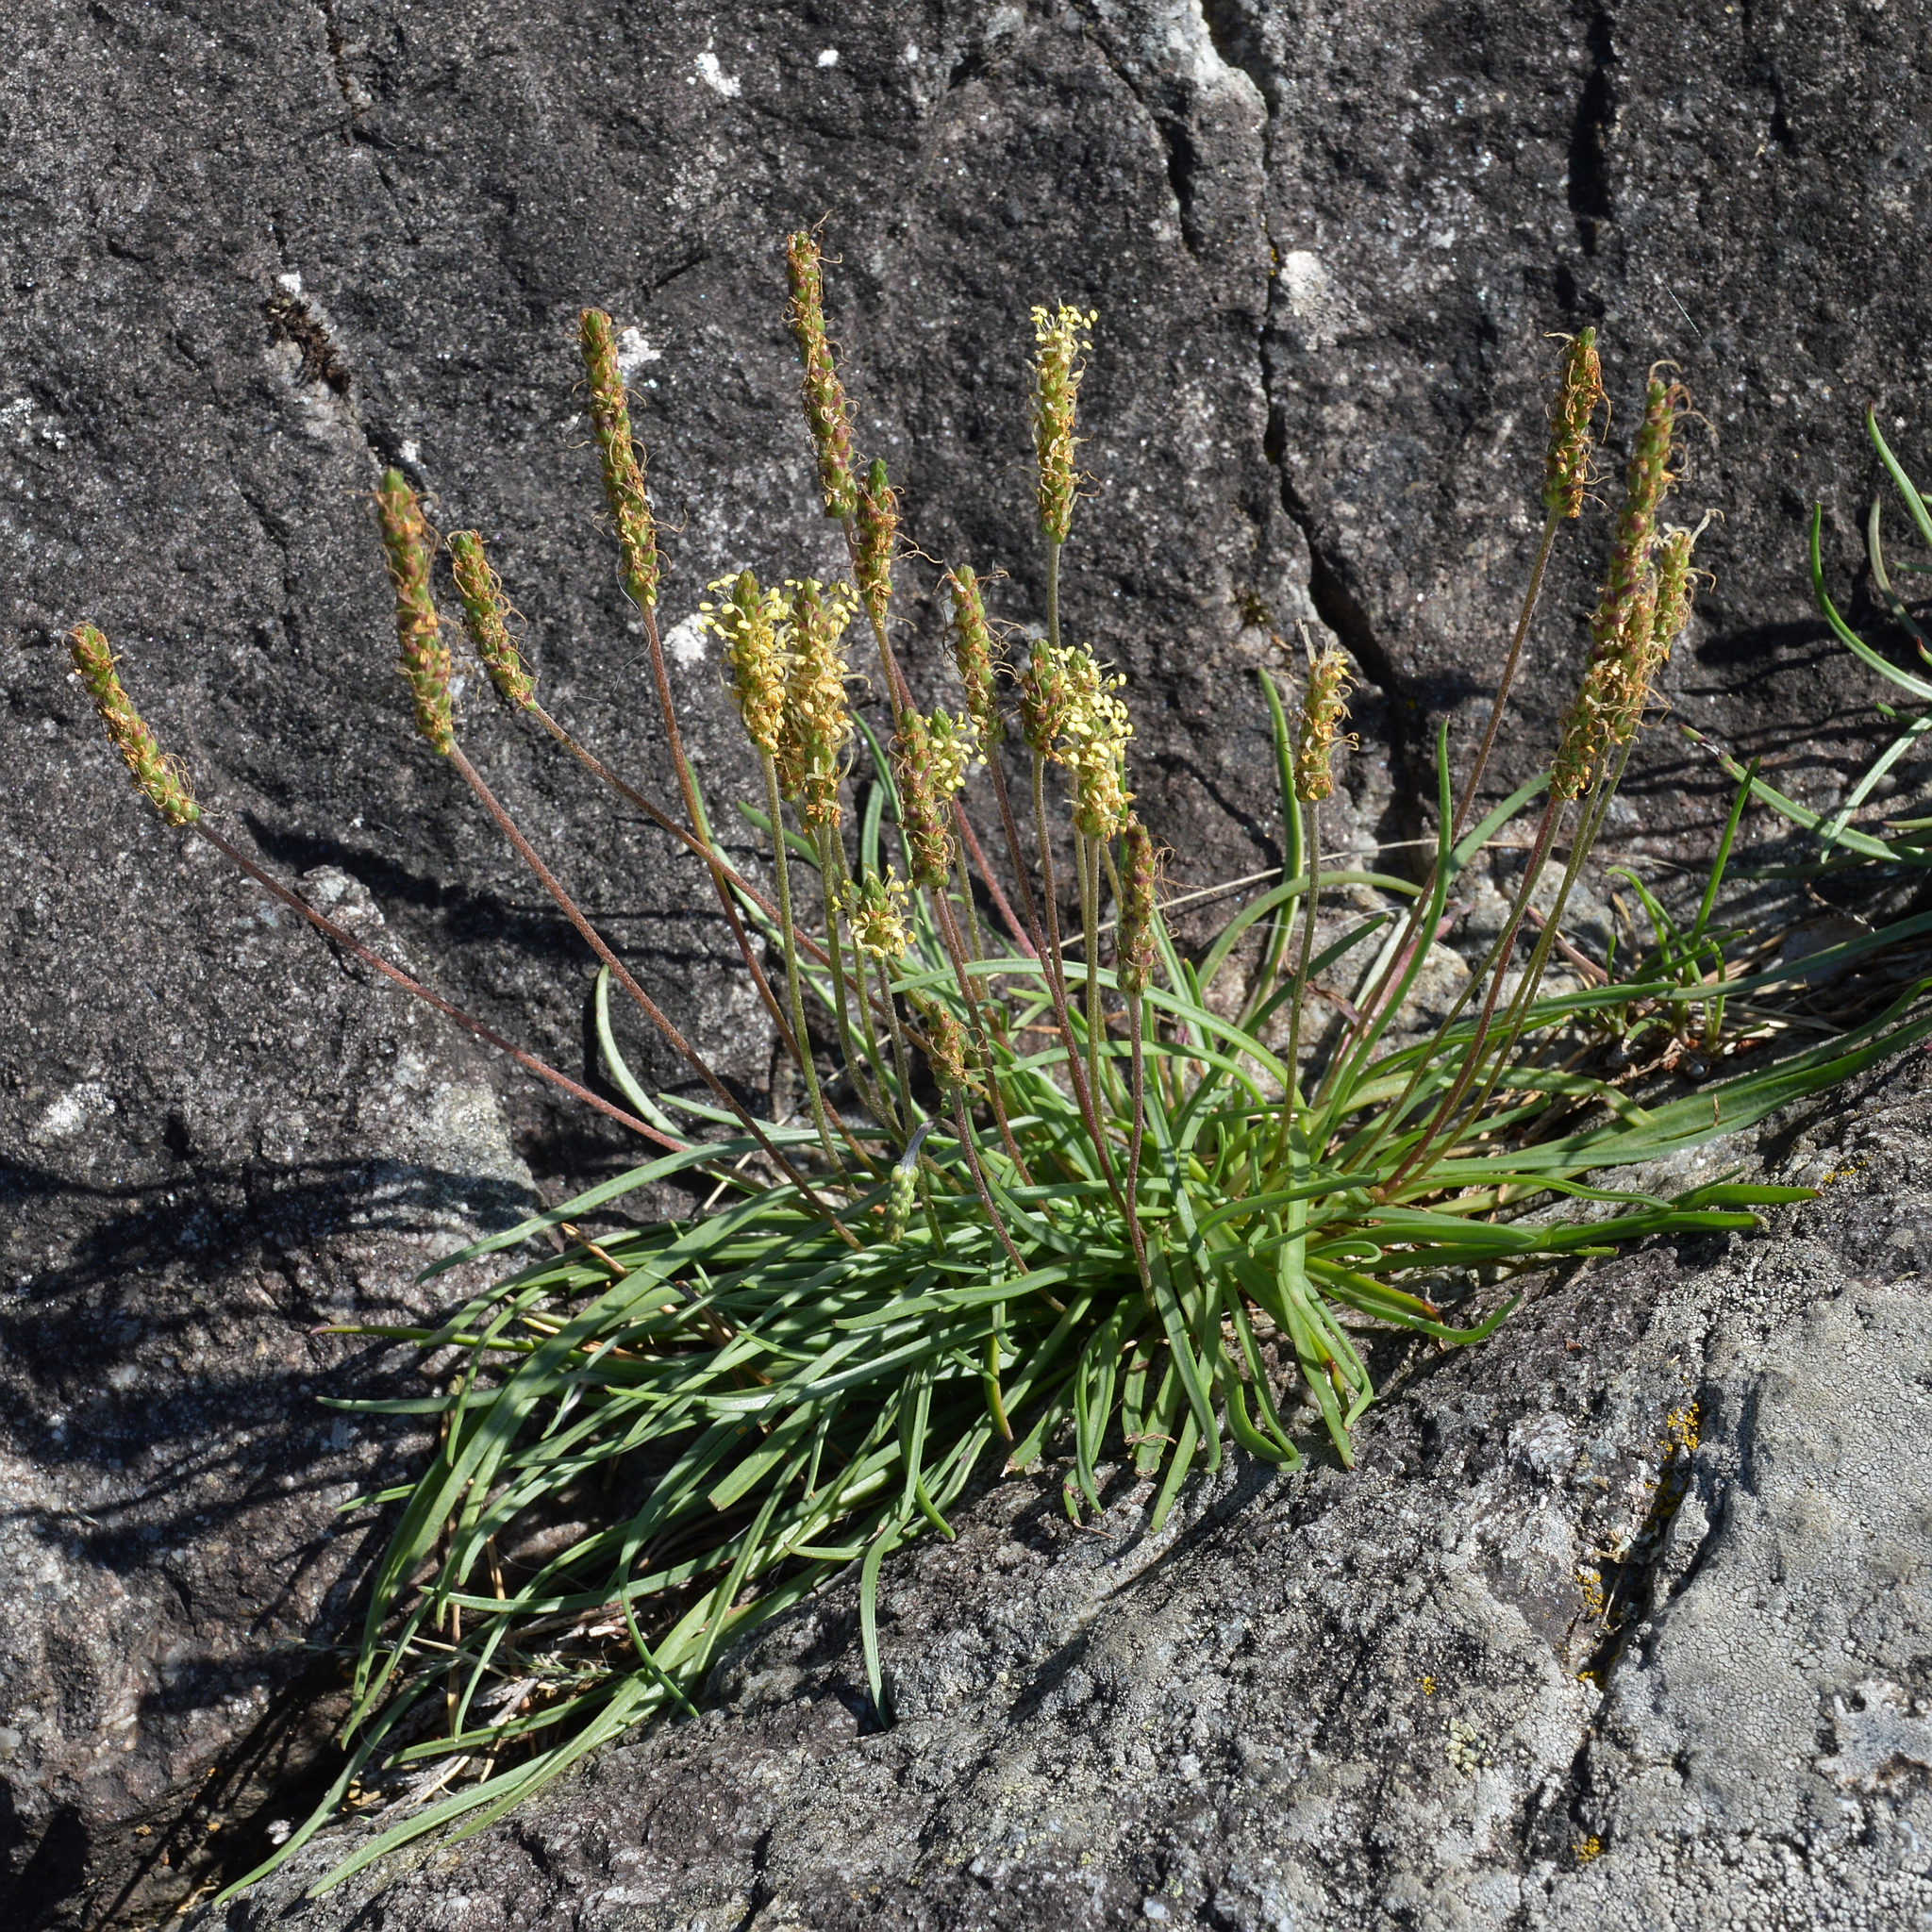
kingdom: Plantae
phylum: Tracheophyta
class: Magnoliopsida
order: Lamiales
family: Plantaginaceae
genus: Plantago
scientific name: Plantago maritima
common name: Sea plantain
